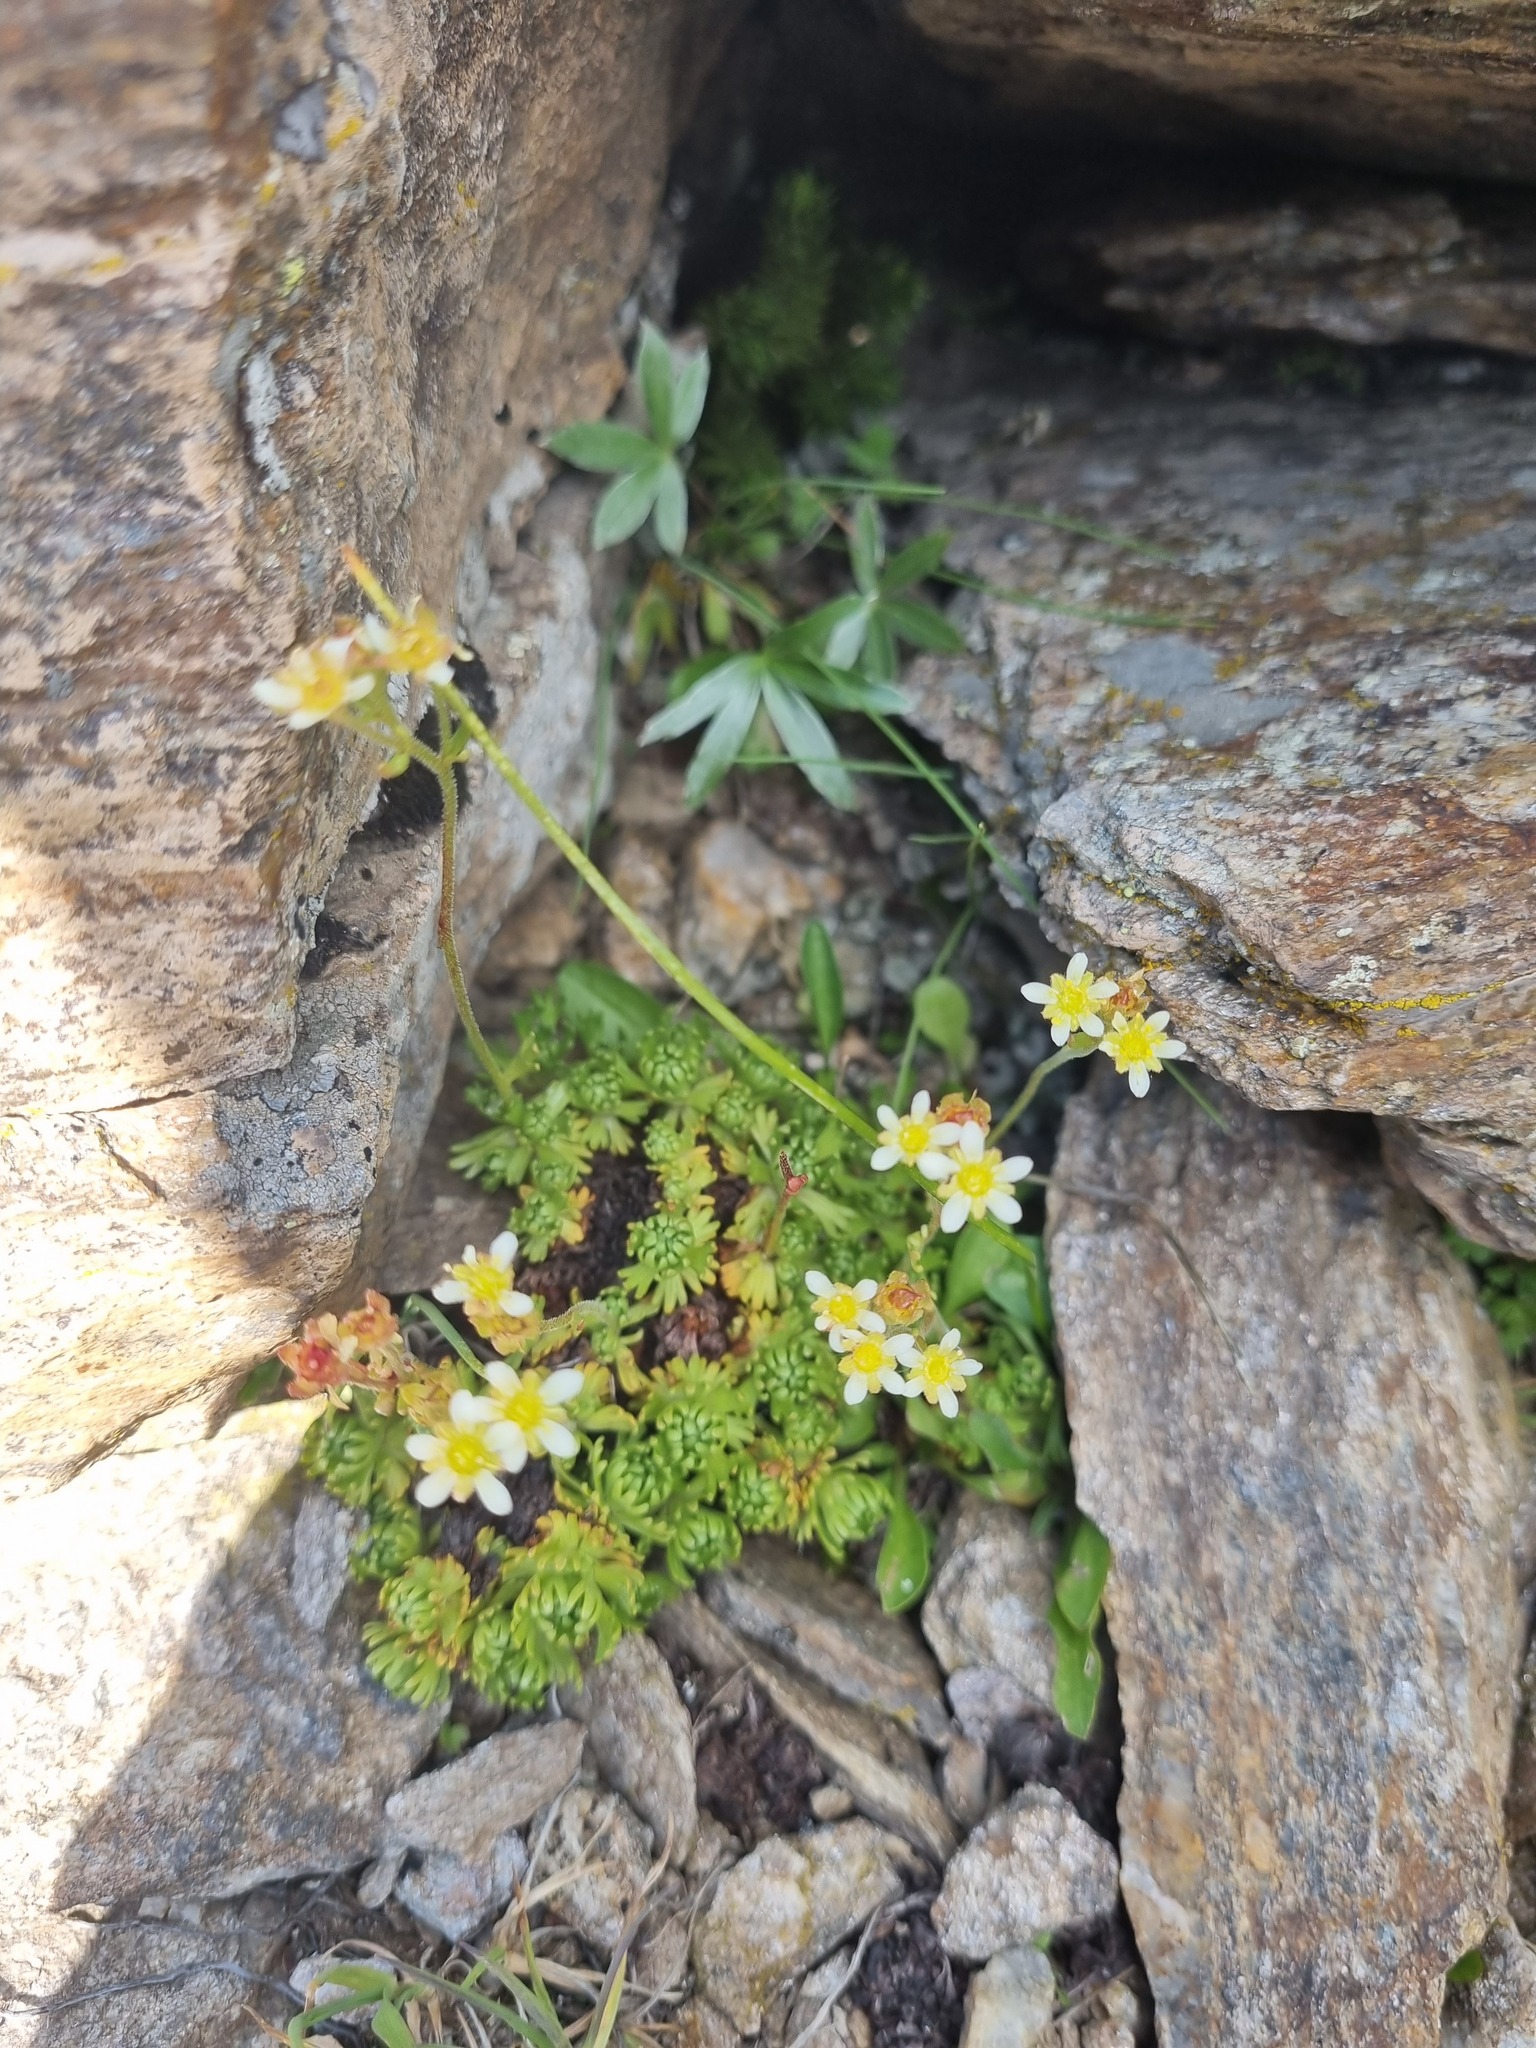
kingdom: Plantae
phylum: Tracheophyta
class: Magnoliopsida
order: Saxifragales
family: Saxifragaceae
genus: Saxifraga
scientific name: Saxifraga exarata
